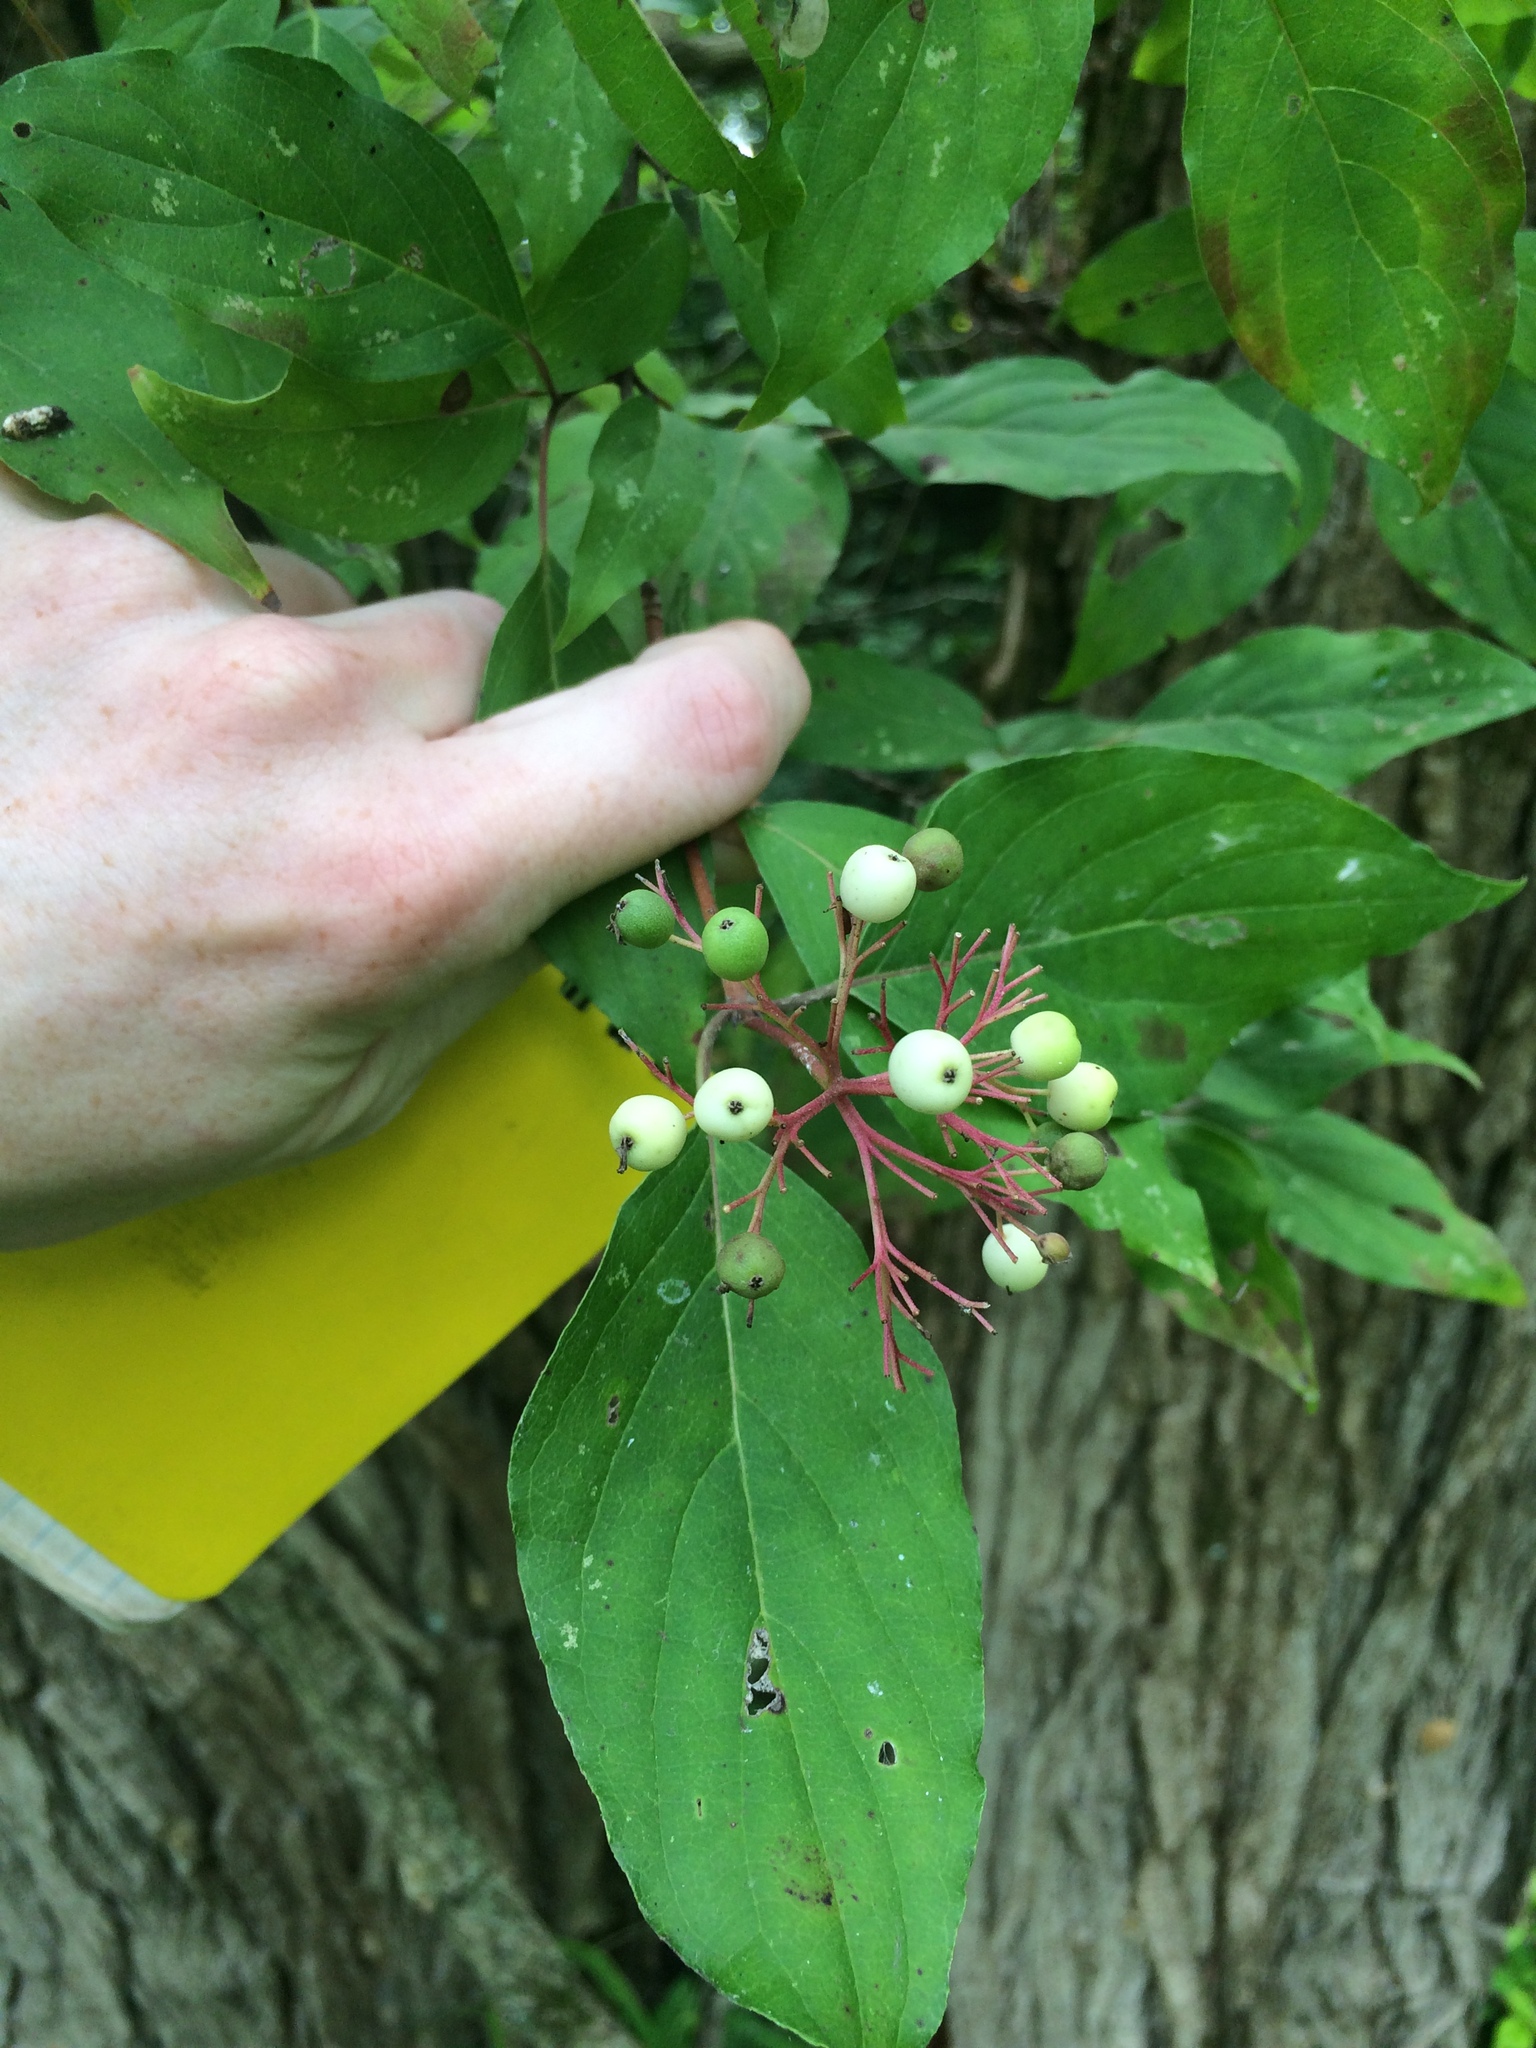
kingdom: Plantae
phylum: Tracheophyta
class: Magnoliopsida
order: Cornales
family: Cornaceae
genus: Cornus
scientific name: Cornus racemosa
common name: Panicled dogwood
